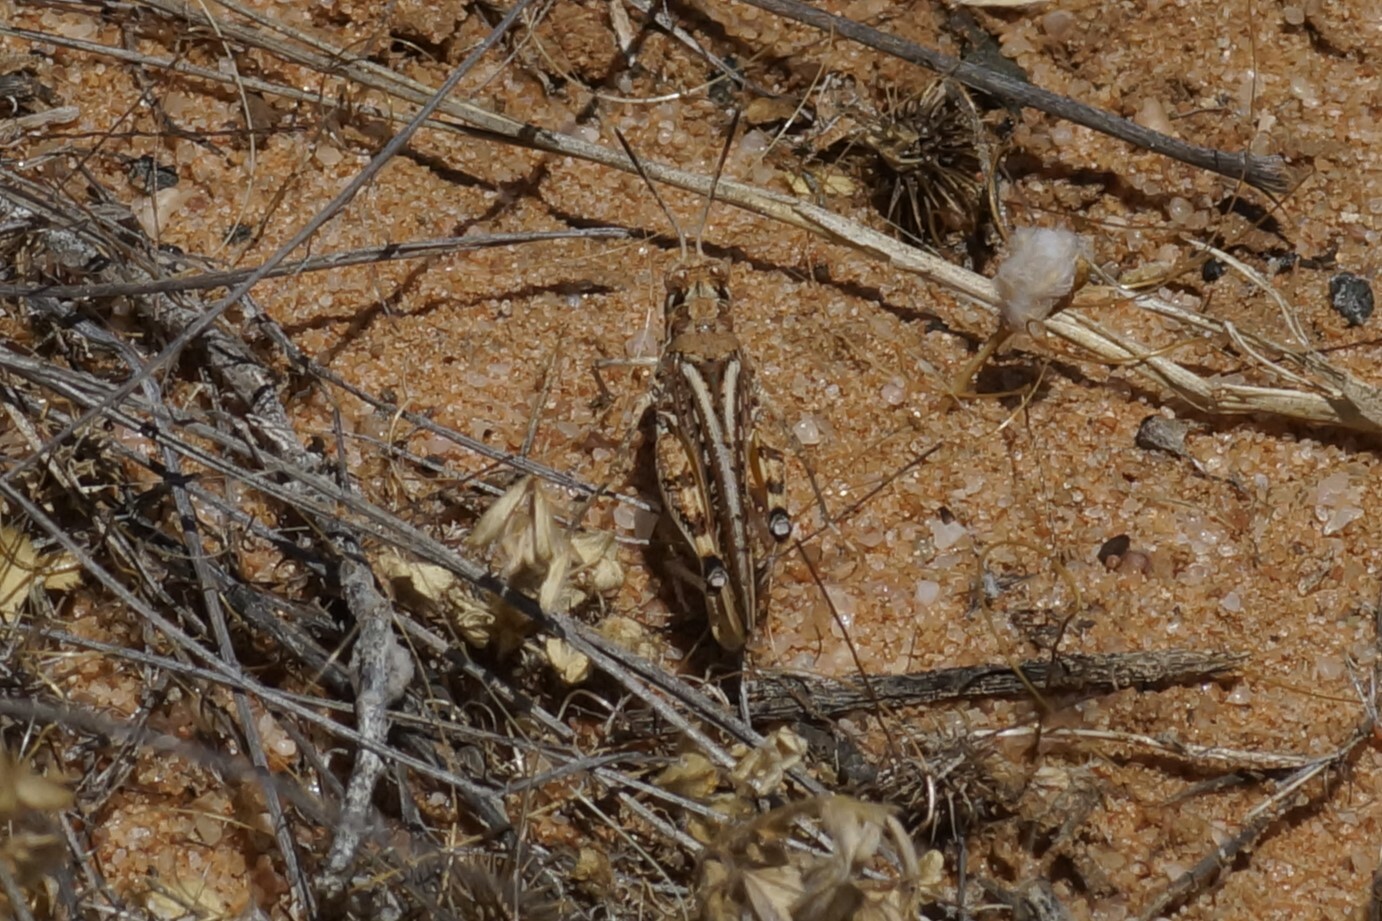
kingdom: Animalia
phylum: Arthropoda
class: Insecta
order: Orthoptera
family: Acrididae
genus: Urnisa
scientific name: Urnisa guttulosa
